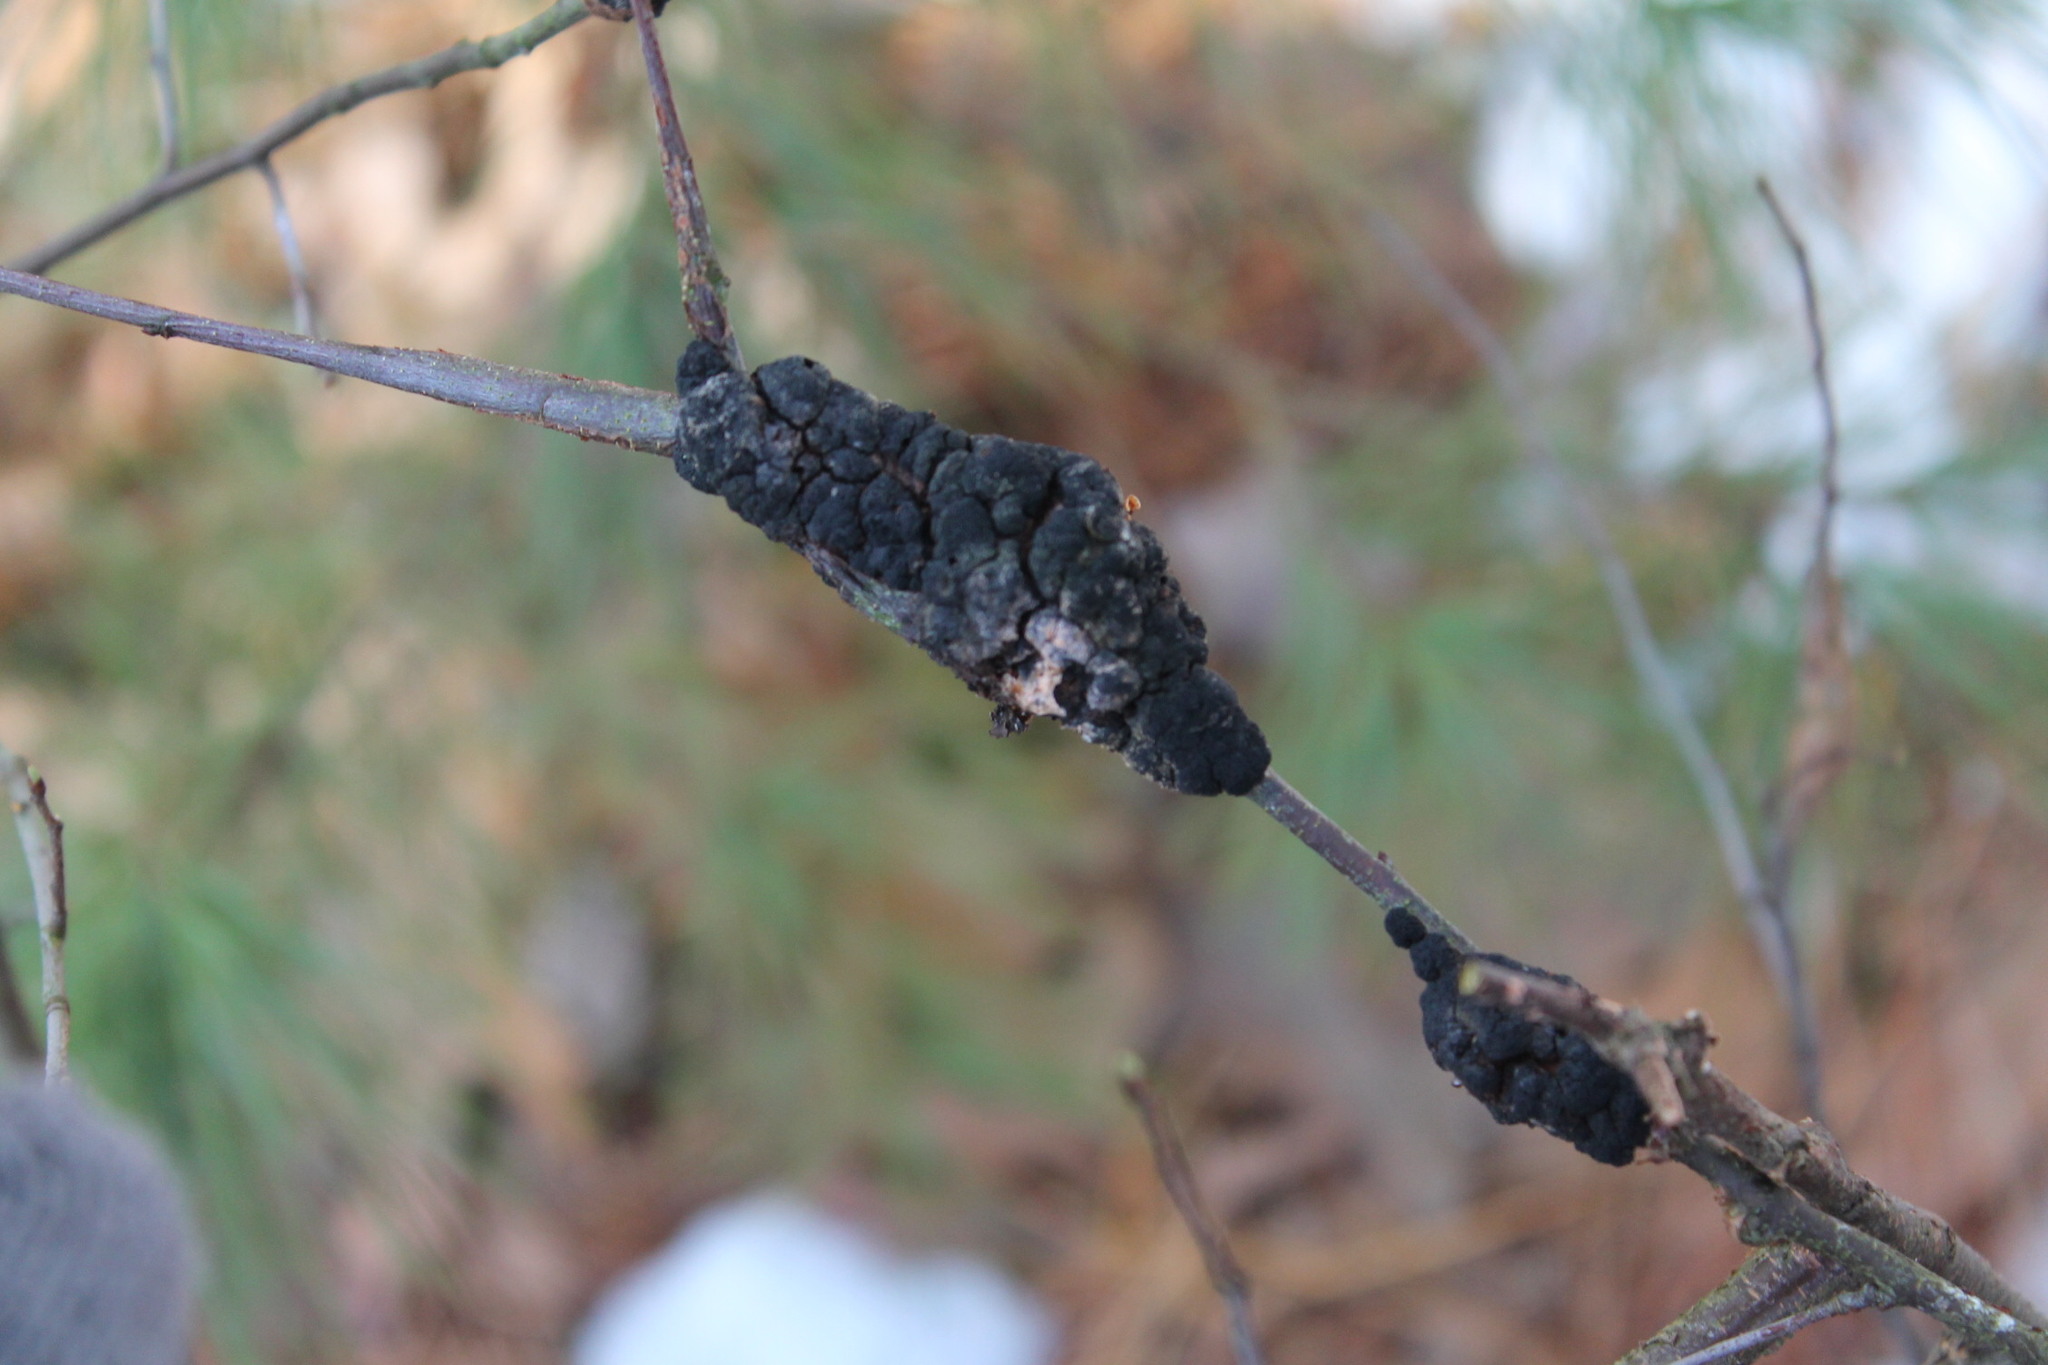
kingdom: Fungi
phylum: Ascomycota
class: Dothideomycetes
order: Venturiales
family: Venturiaceae
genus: Apiosporina
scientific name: Apiosporina morbosa
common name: Black knot
